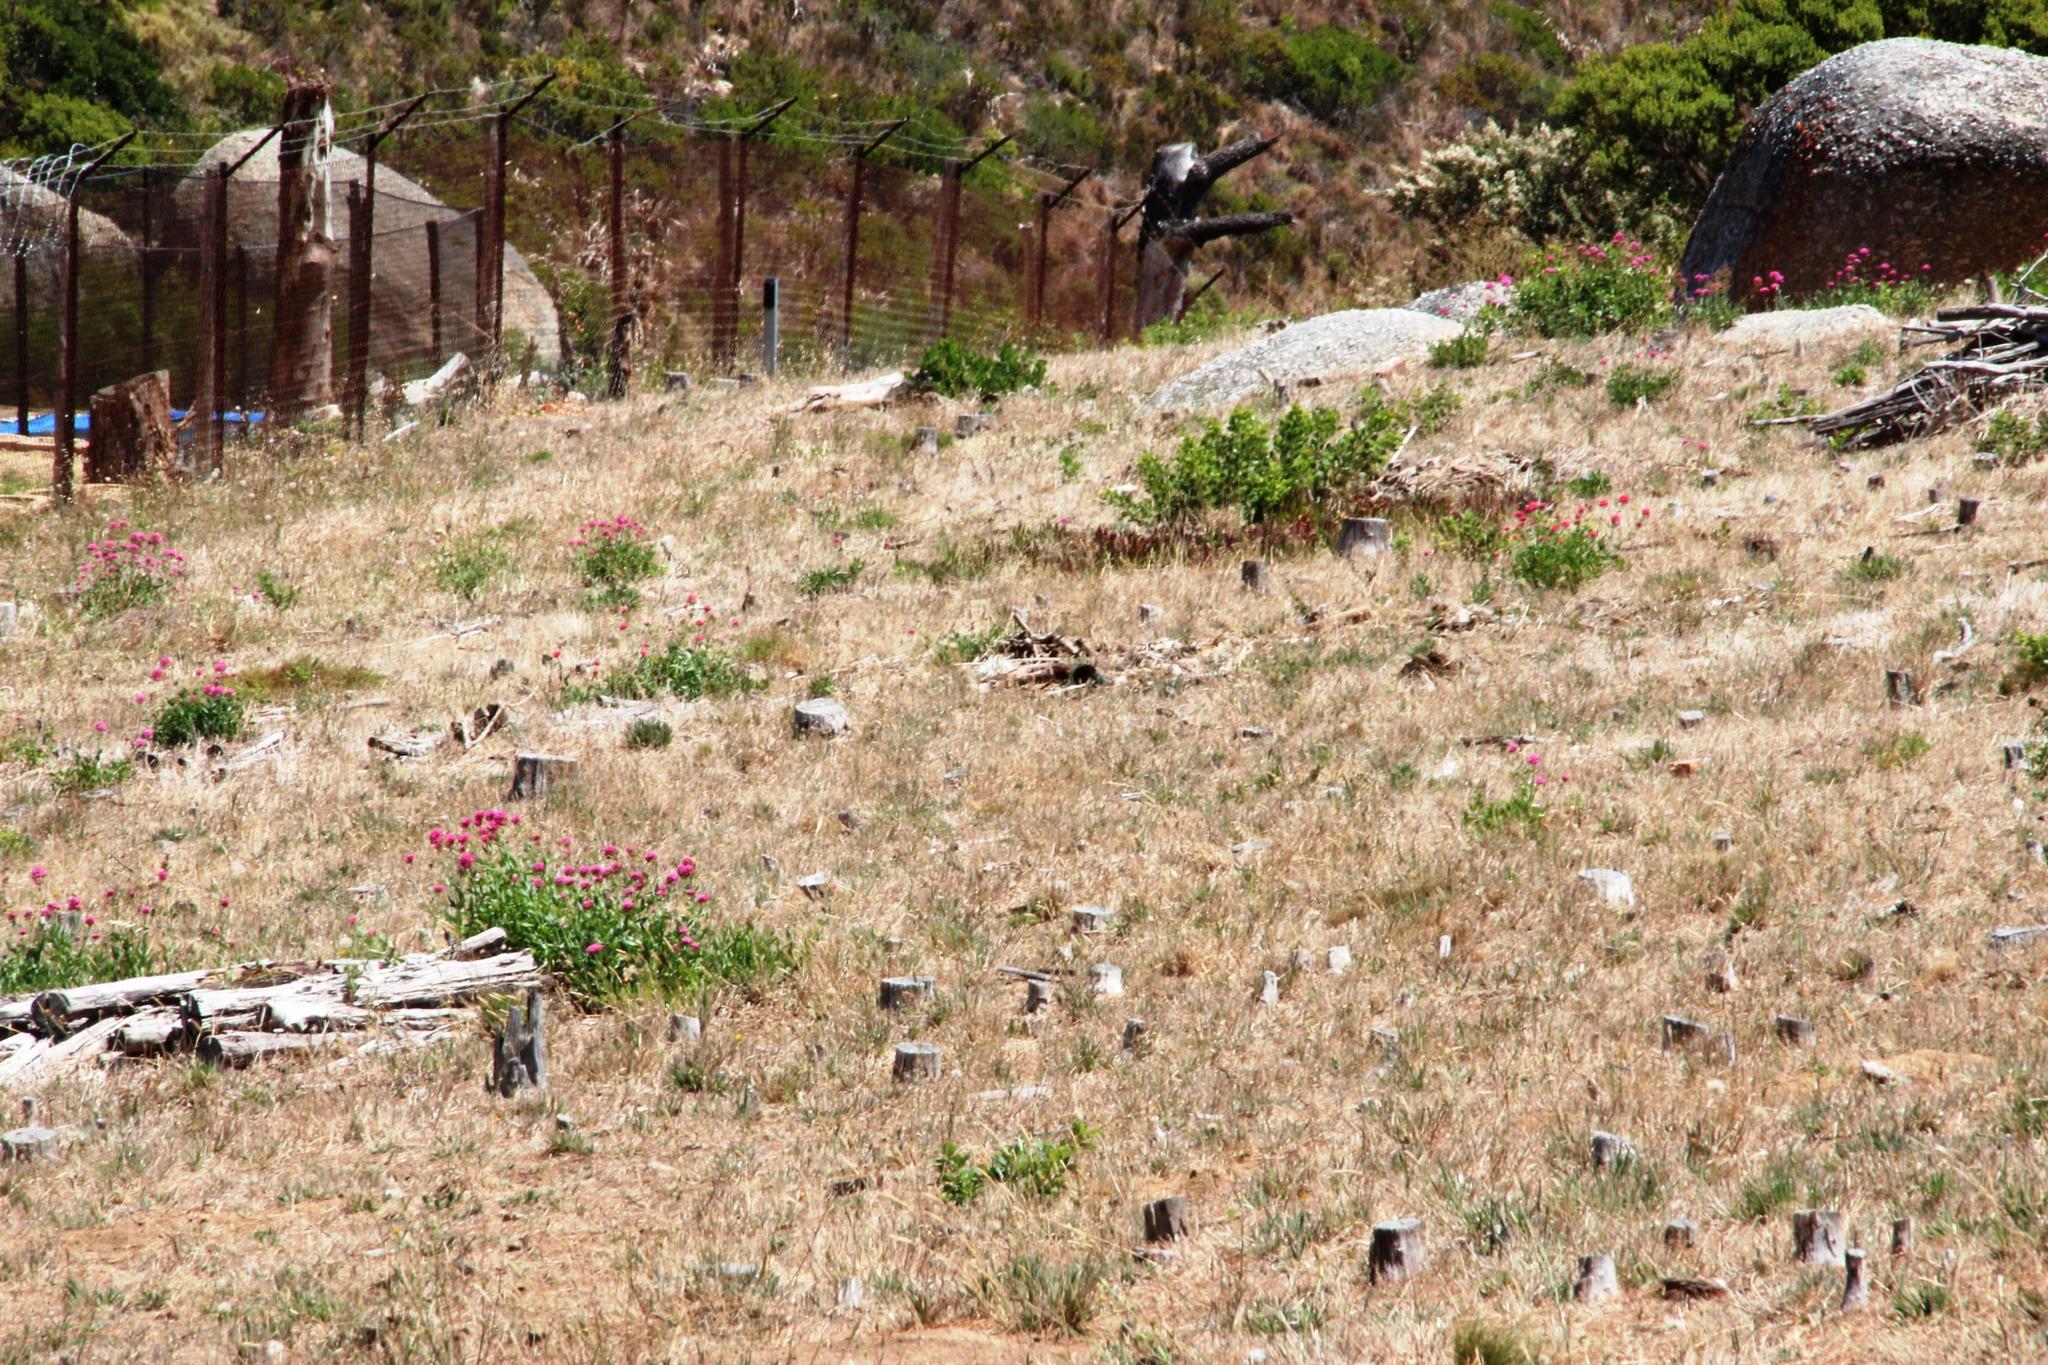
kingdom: Plantae
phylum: Tracheophyta
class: Magnoliopsida
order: Dipsacales
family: Caprifoliaceae
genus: Centranthus
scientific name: Centranthus ruber
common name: Red valerian
